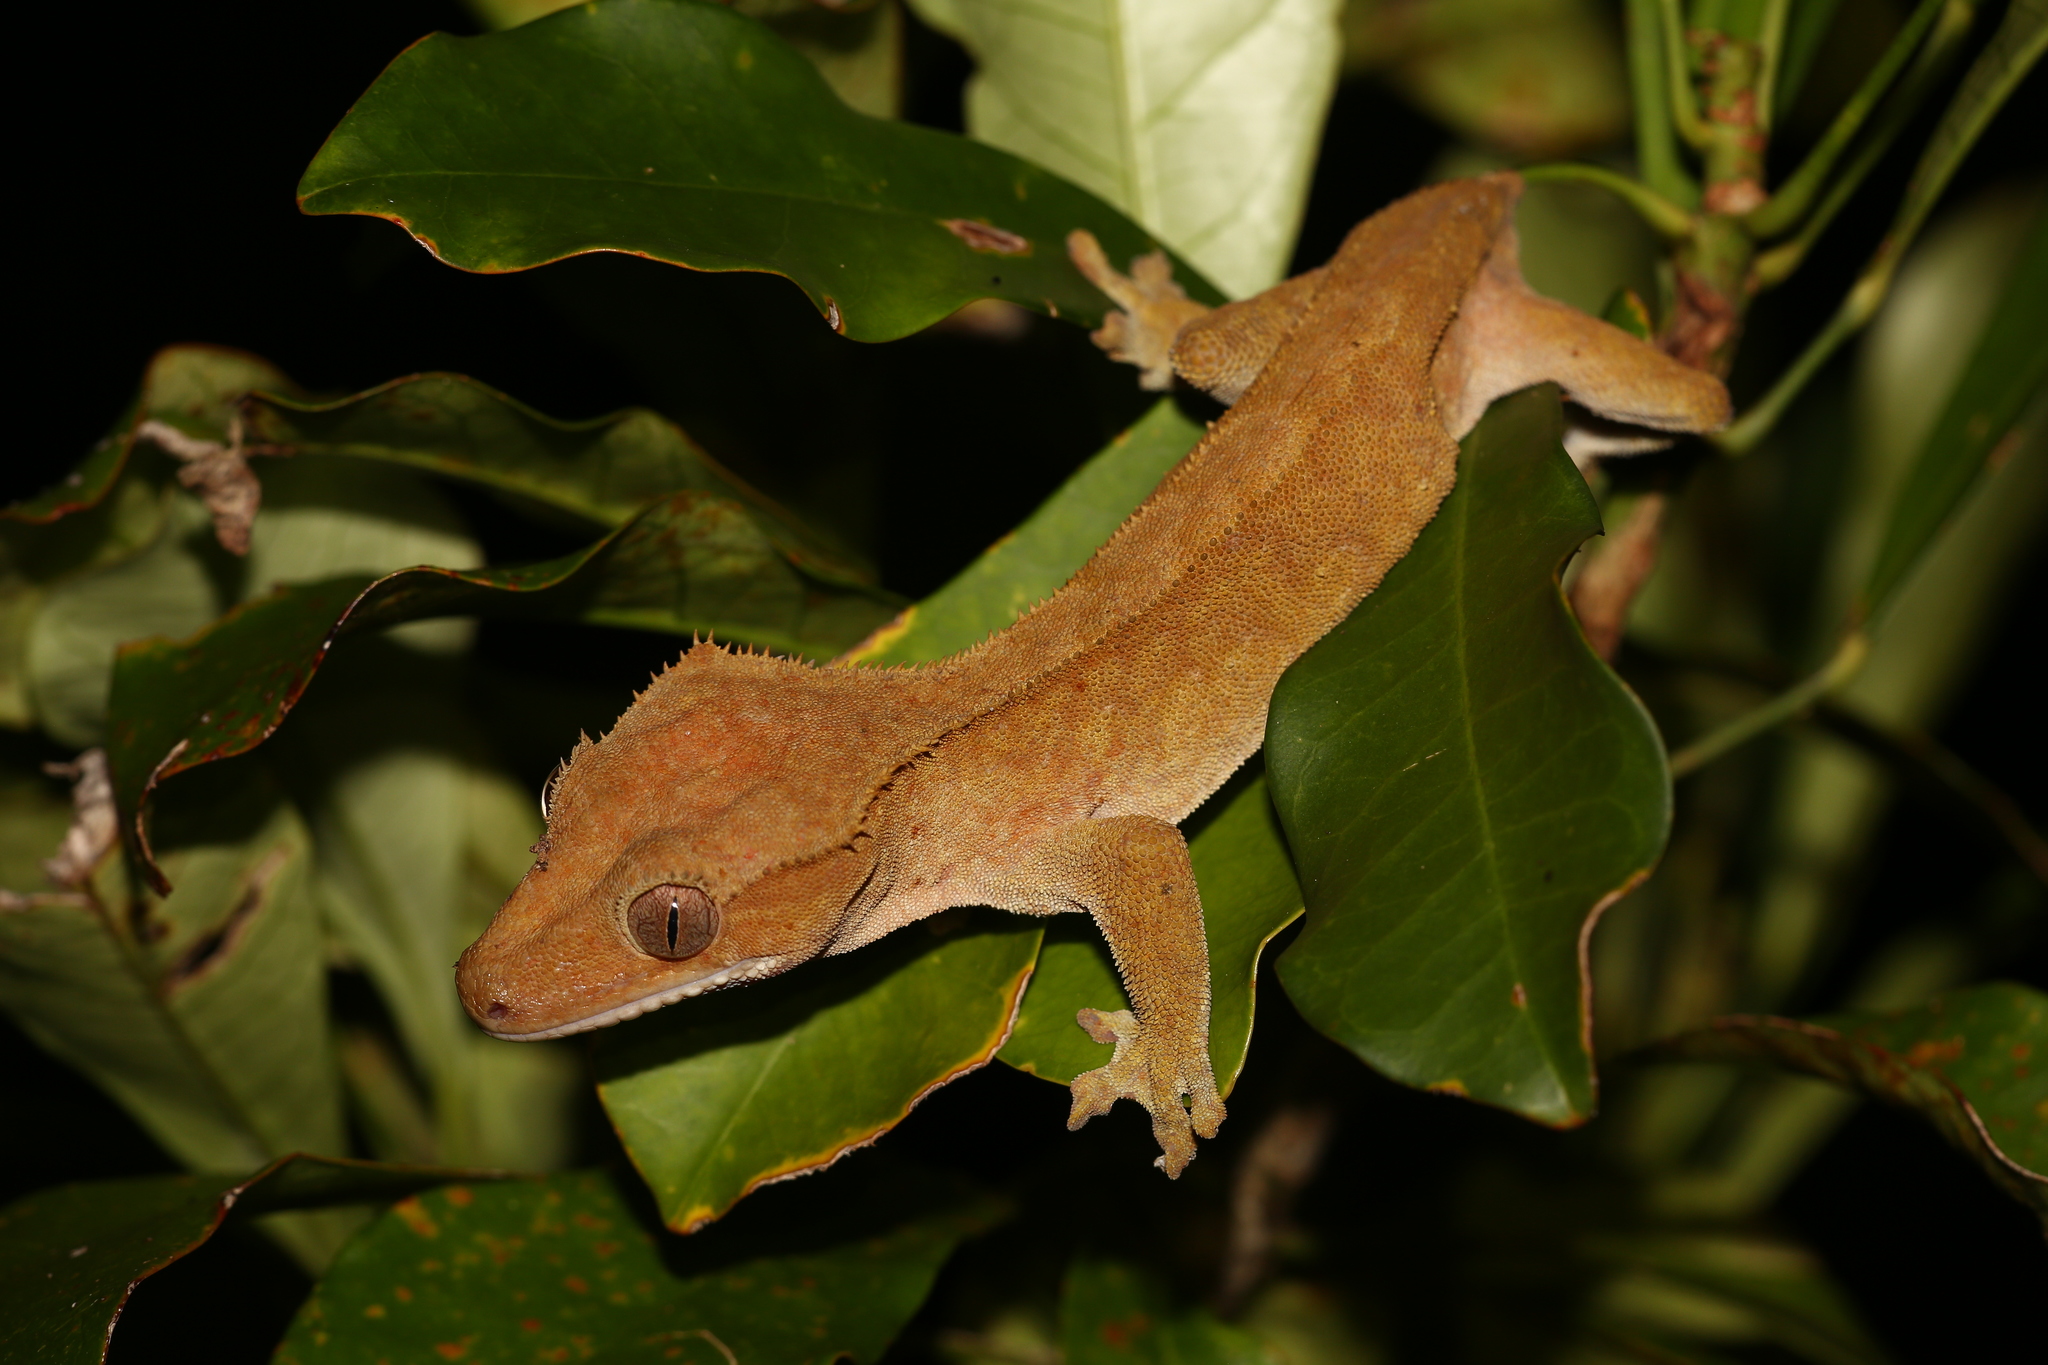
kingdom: Animalia
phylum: Chordata
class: Squamata
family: Diplodactylidae
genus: Correlophus
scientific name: Correlophus ciliatus
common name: Crested gecko
